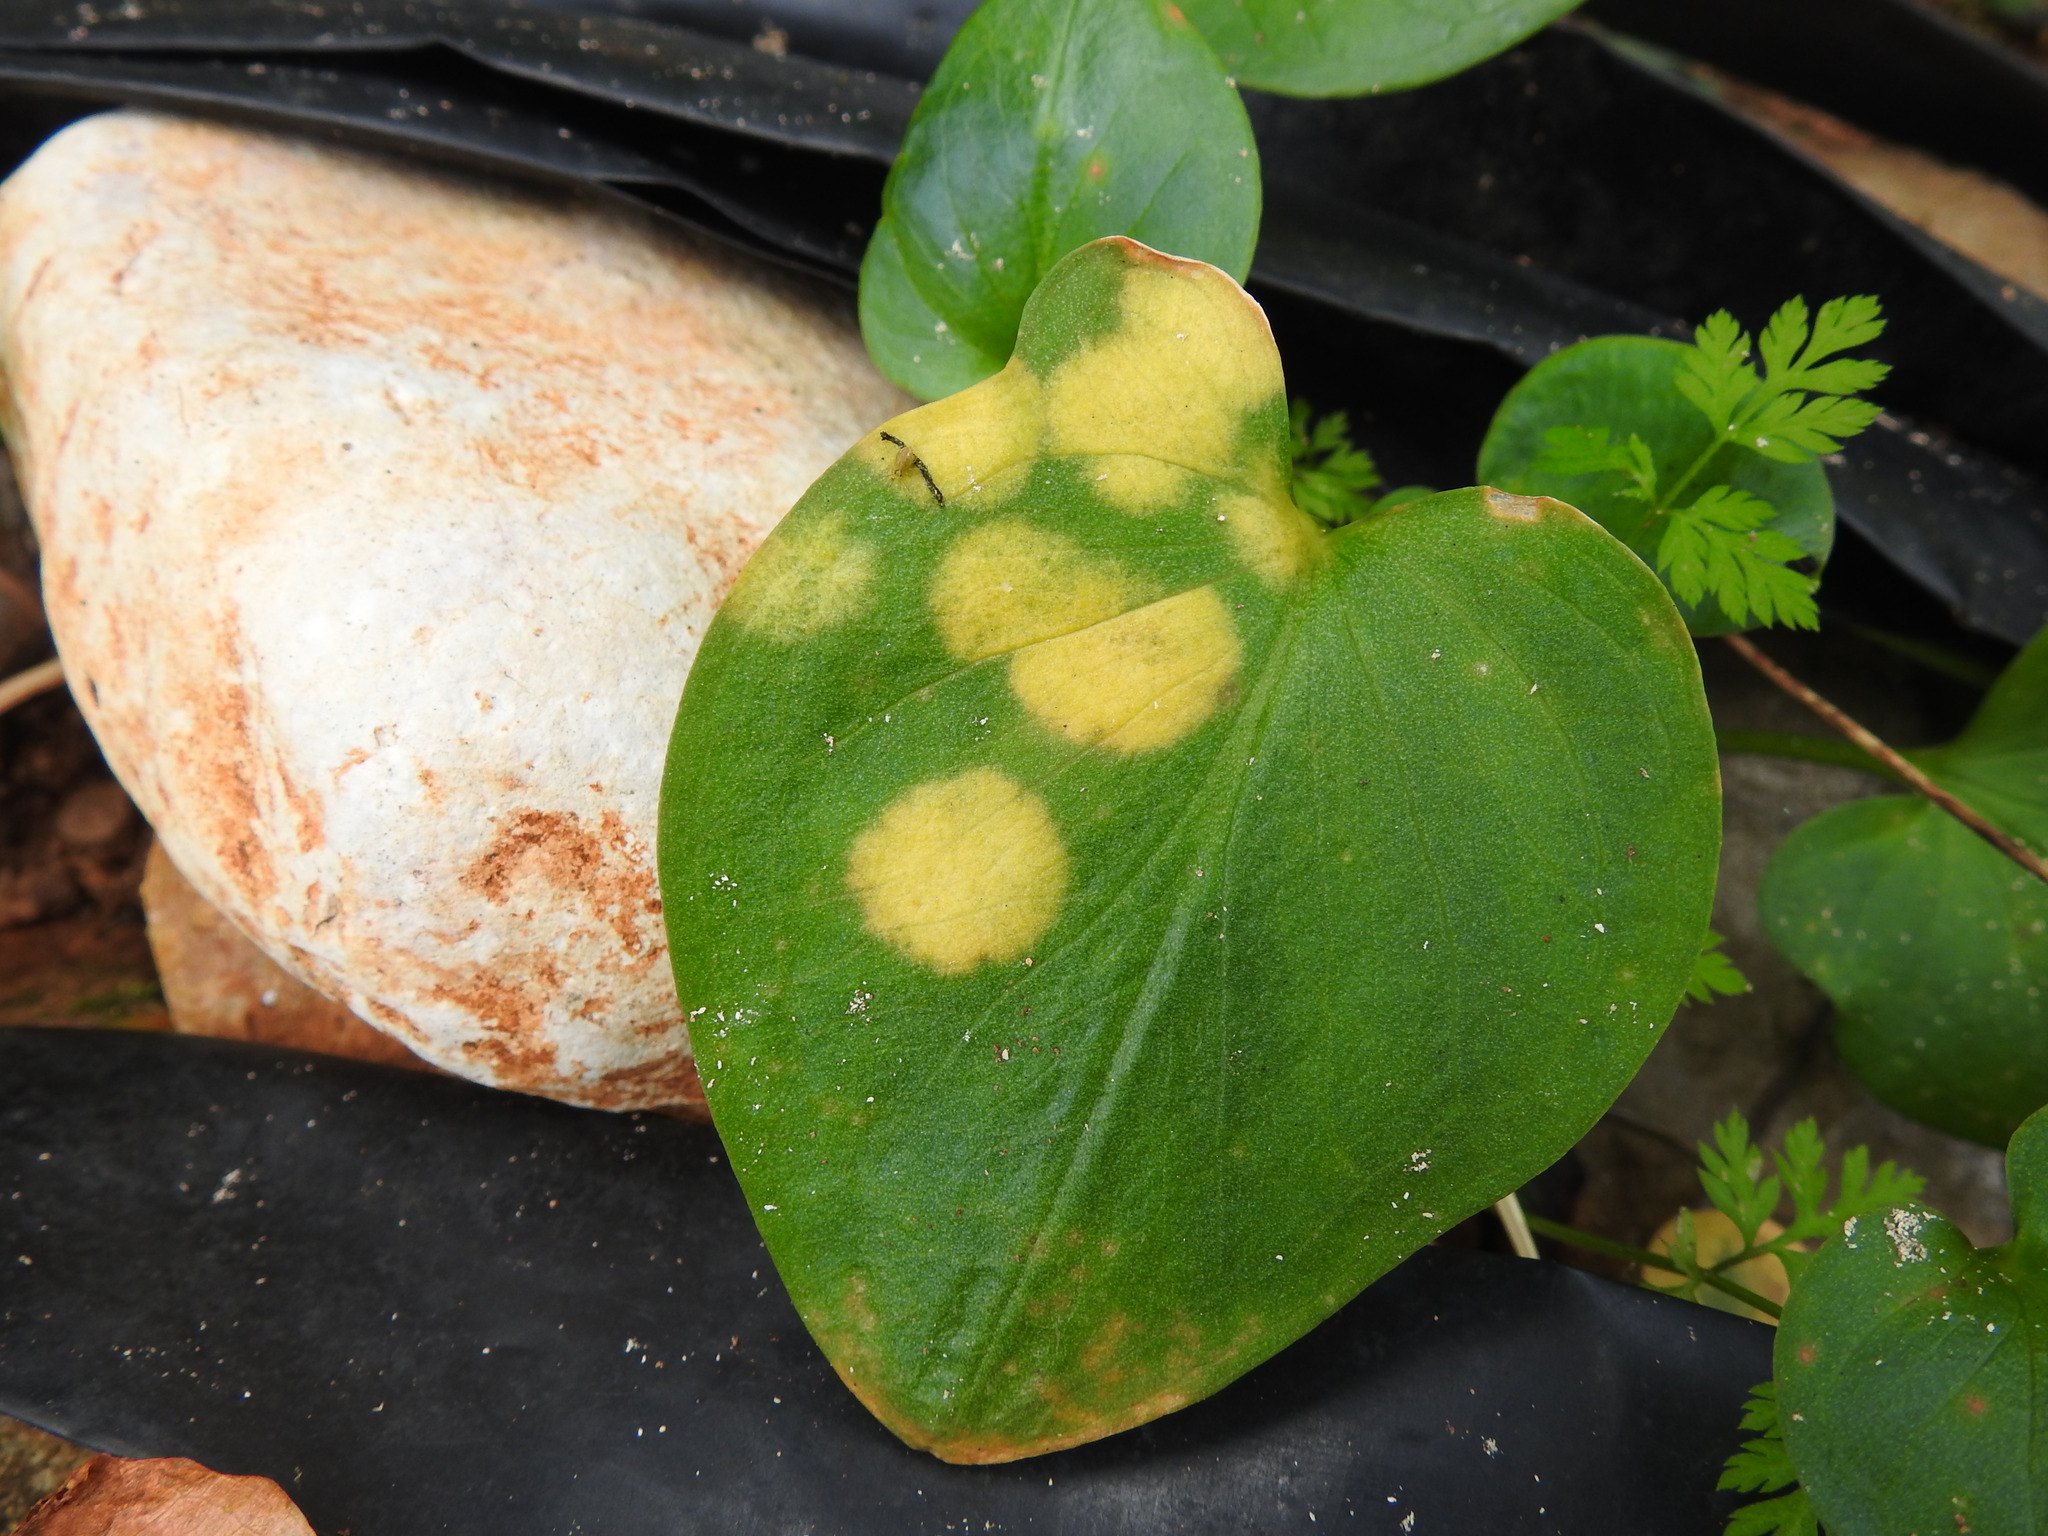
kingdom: Chromista
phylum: Ochrophyta
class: Xanthophyceae
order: Phyllosiphonales
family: Phyllosiphonaceae
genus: Phyllosiphon
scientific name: Phyllosiphon arisari
